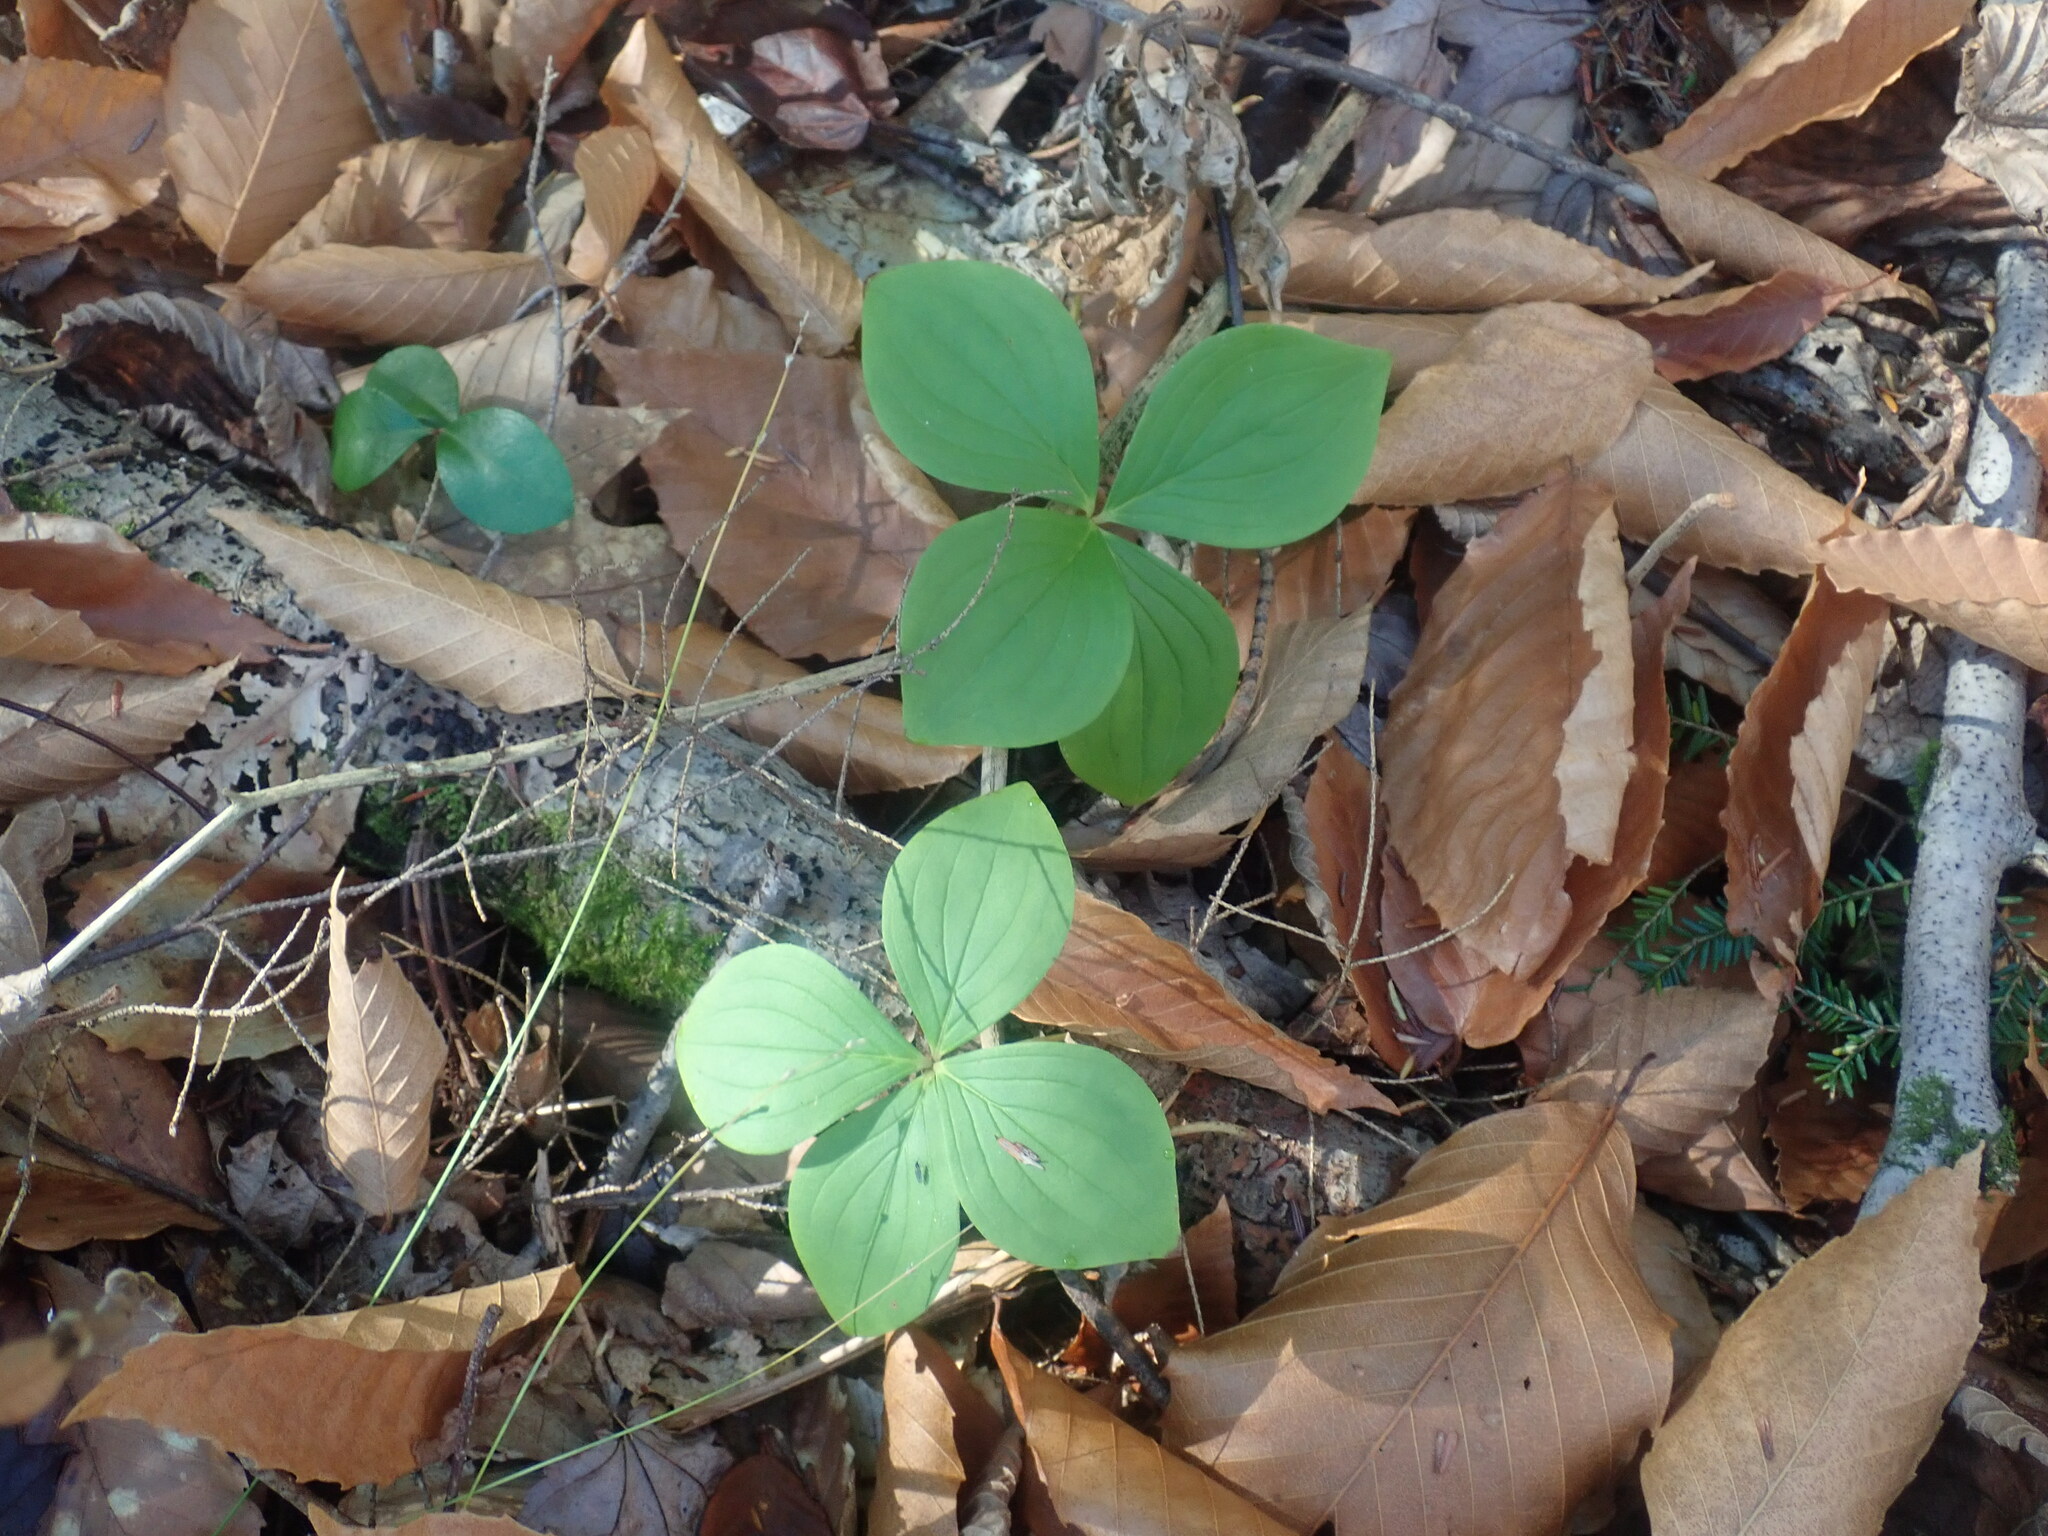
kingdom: Plantae
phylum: Tracheophyta
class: Magnoliopsida
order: Cornales
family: Cornaceae
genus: Cornus
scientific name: Cornus canadensis
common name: Creeping dogwood
